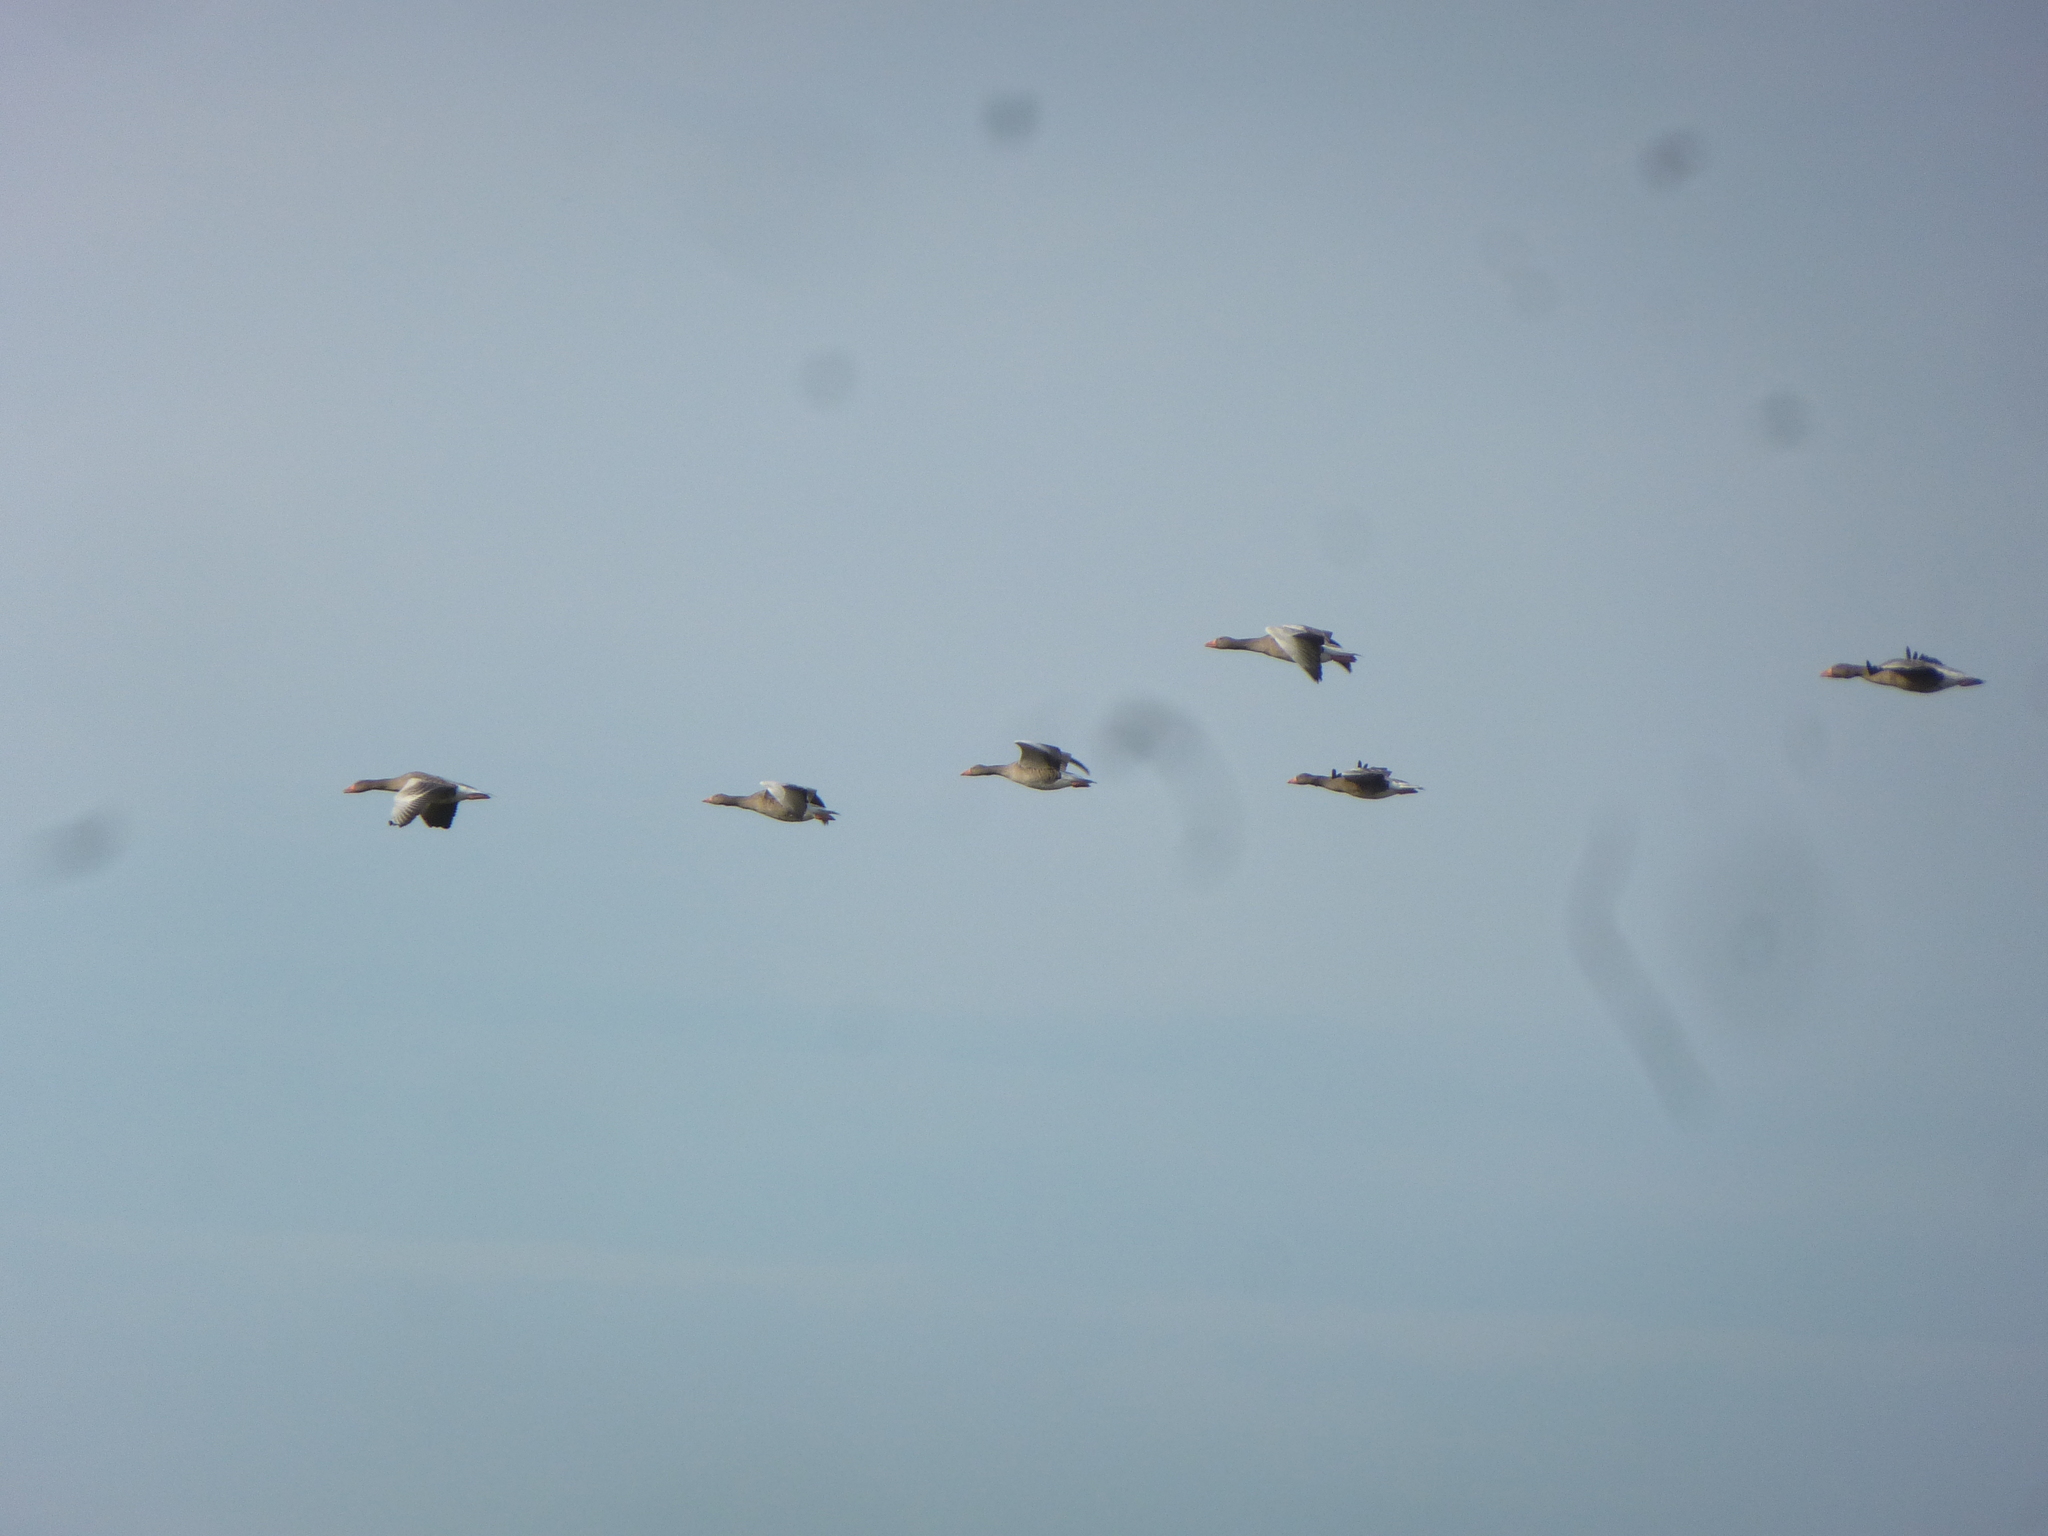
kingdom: Animalia
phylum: Chordata
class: Aves
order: Anseriformes
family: Anatidae
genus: Anser
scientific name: Anser anser
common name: Greylag goose
